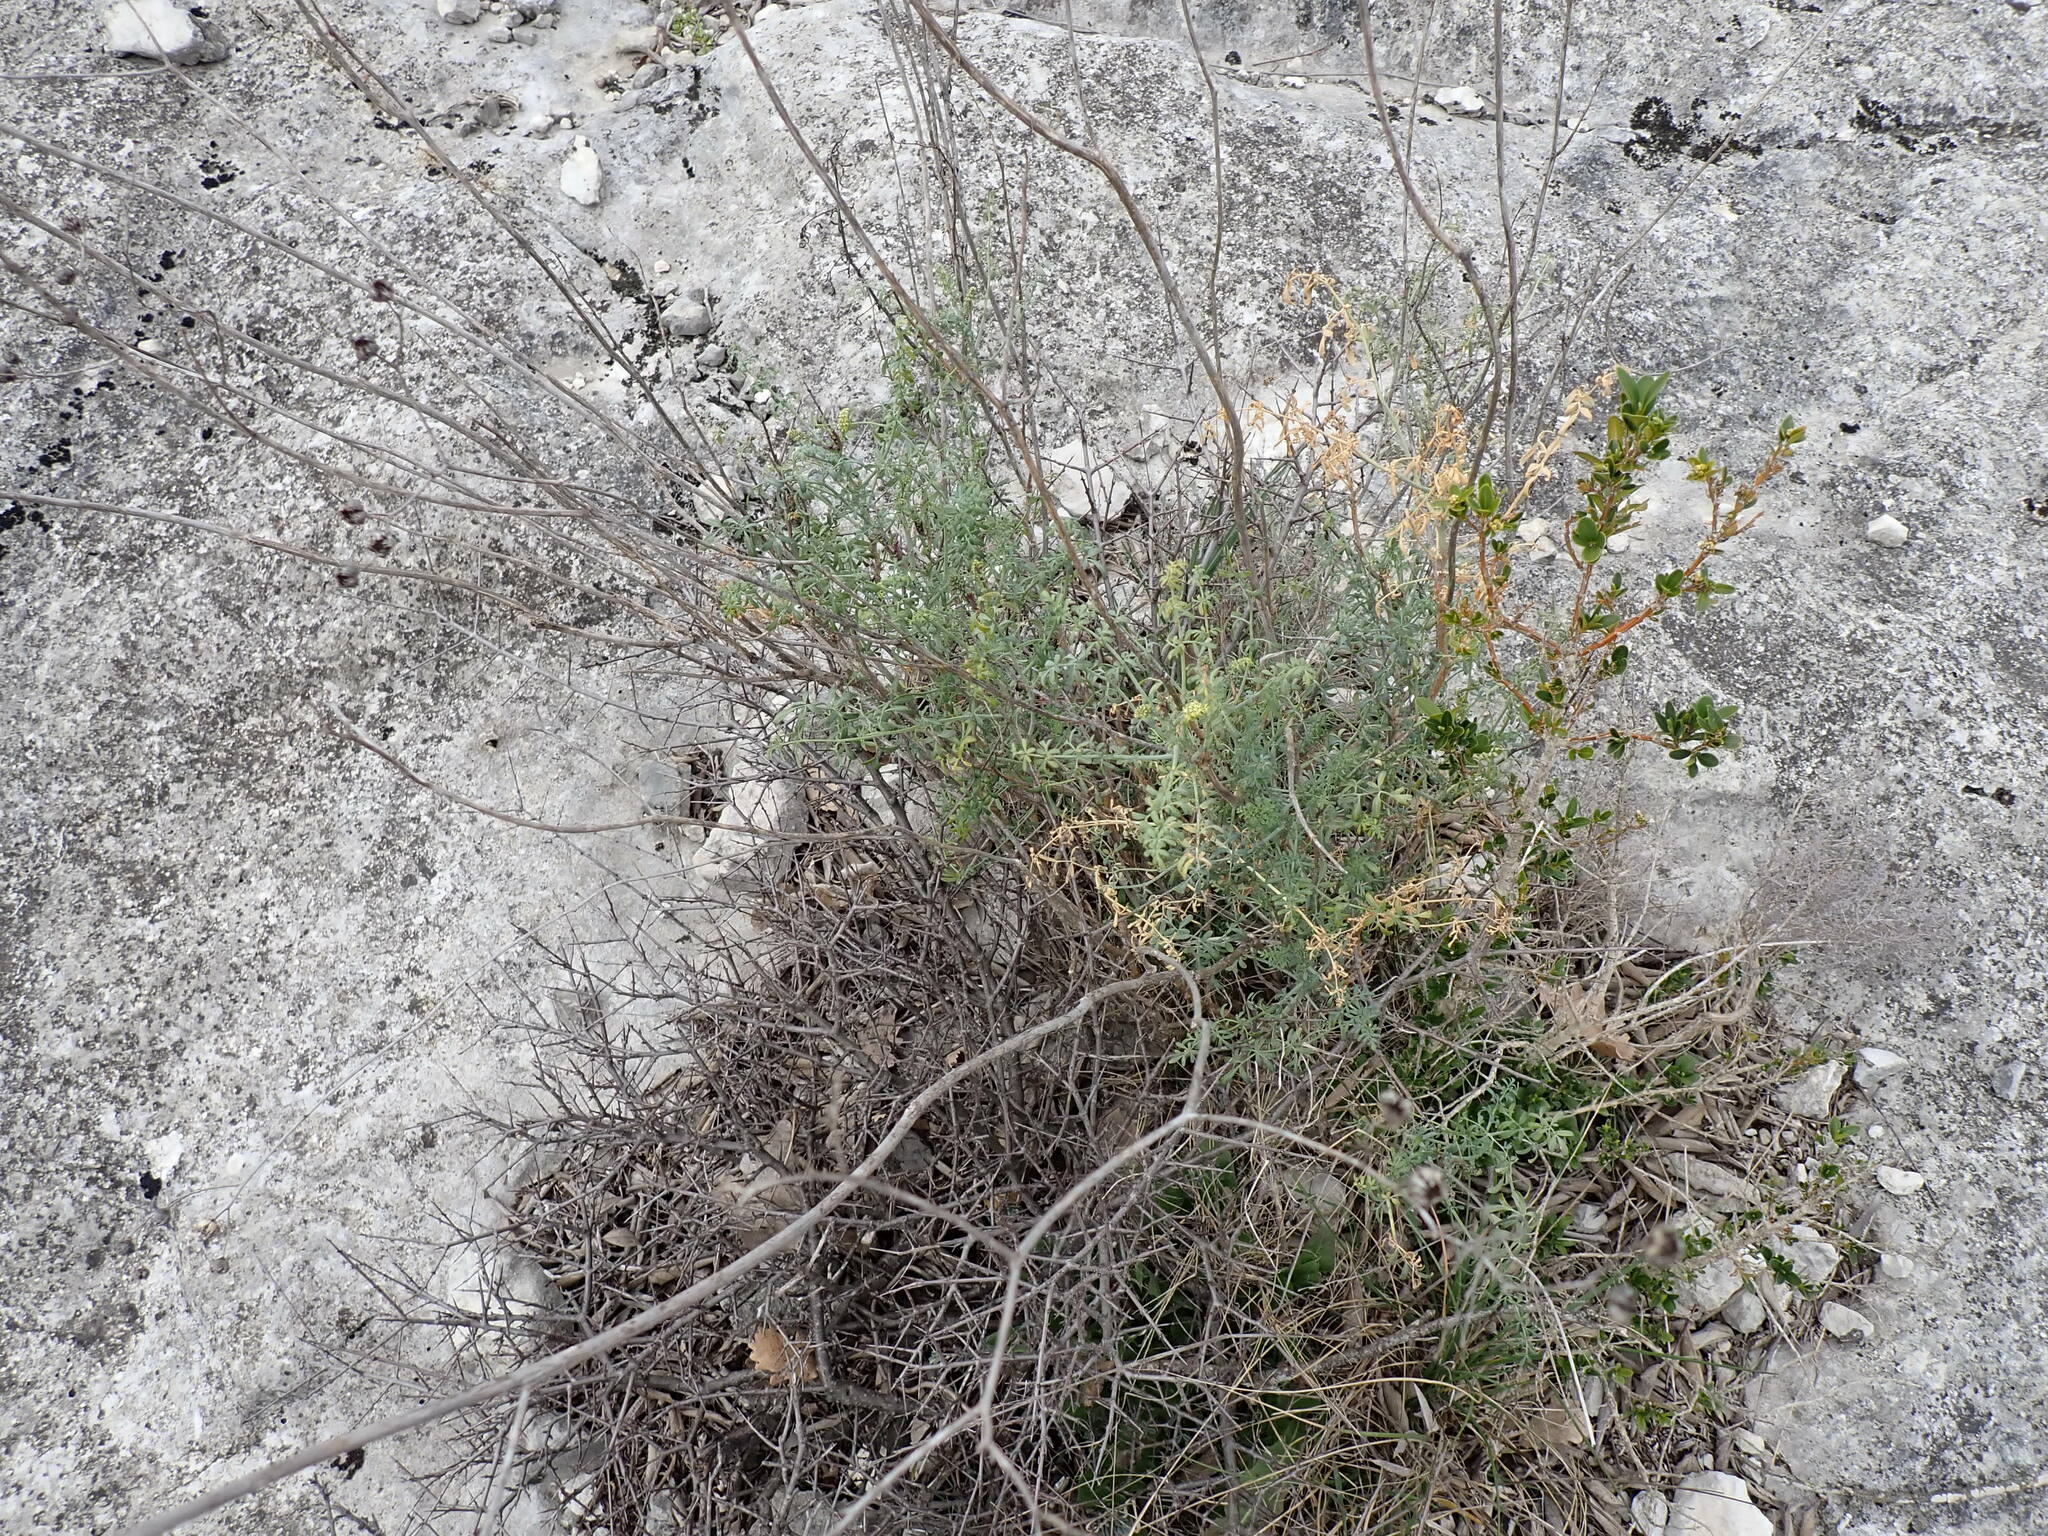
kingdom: Plantae
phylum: Tracheophyta
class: Magnoliopsida
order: Sapindales
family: Rutaceae
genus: Ruta
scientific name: Ruta angustifolia
